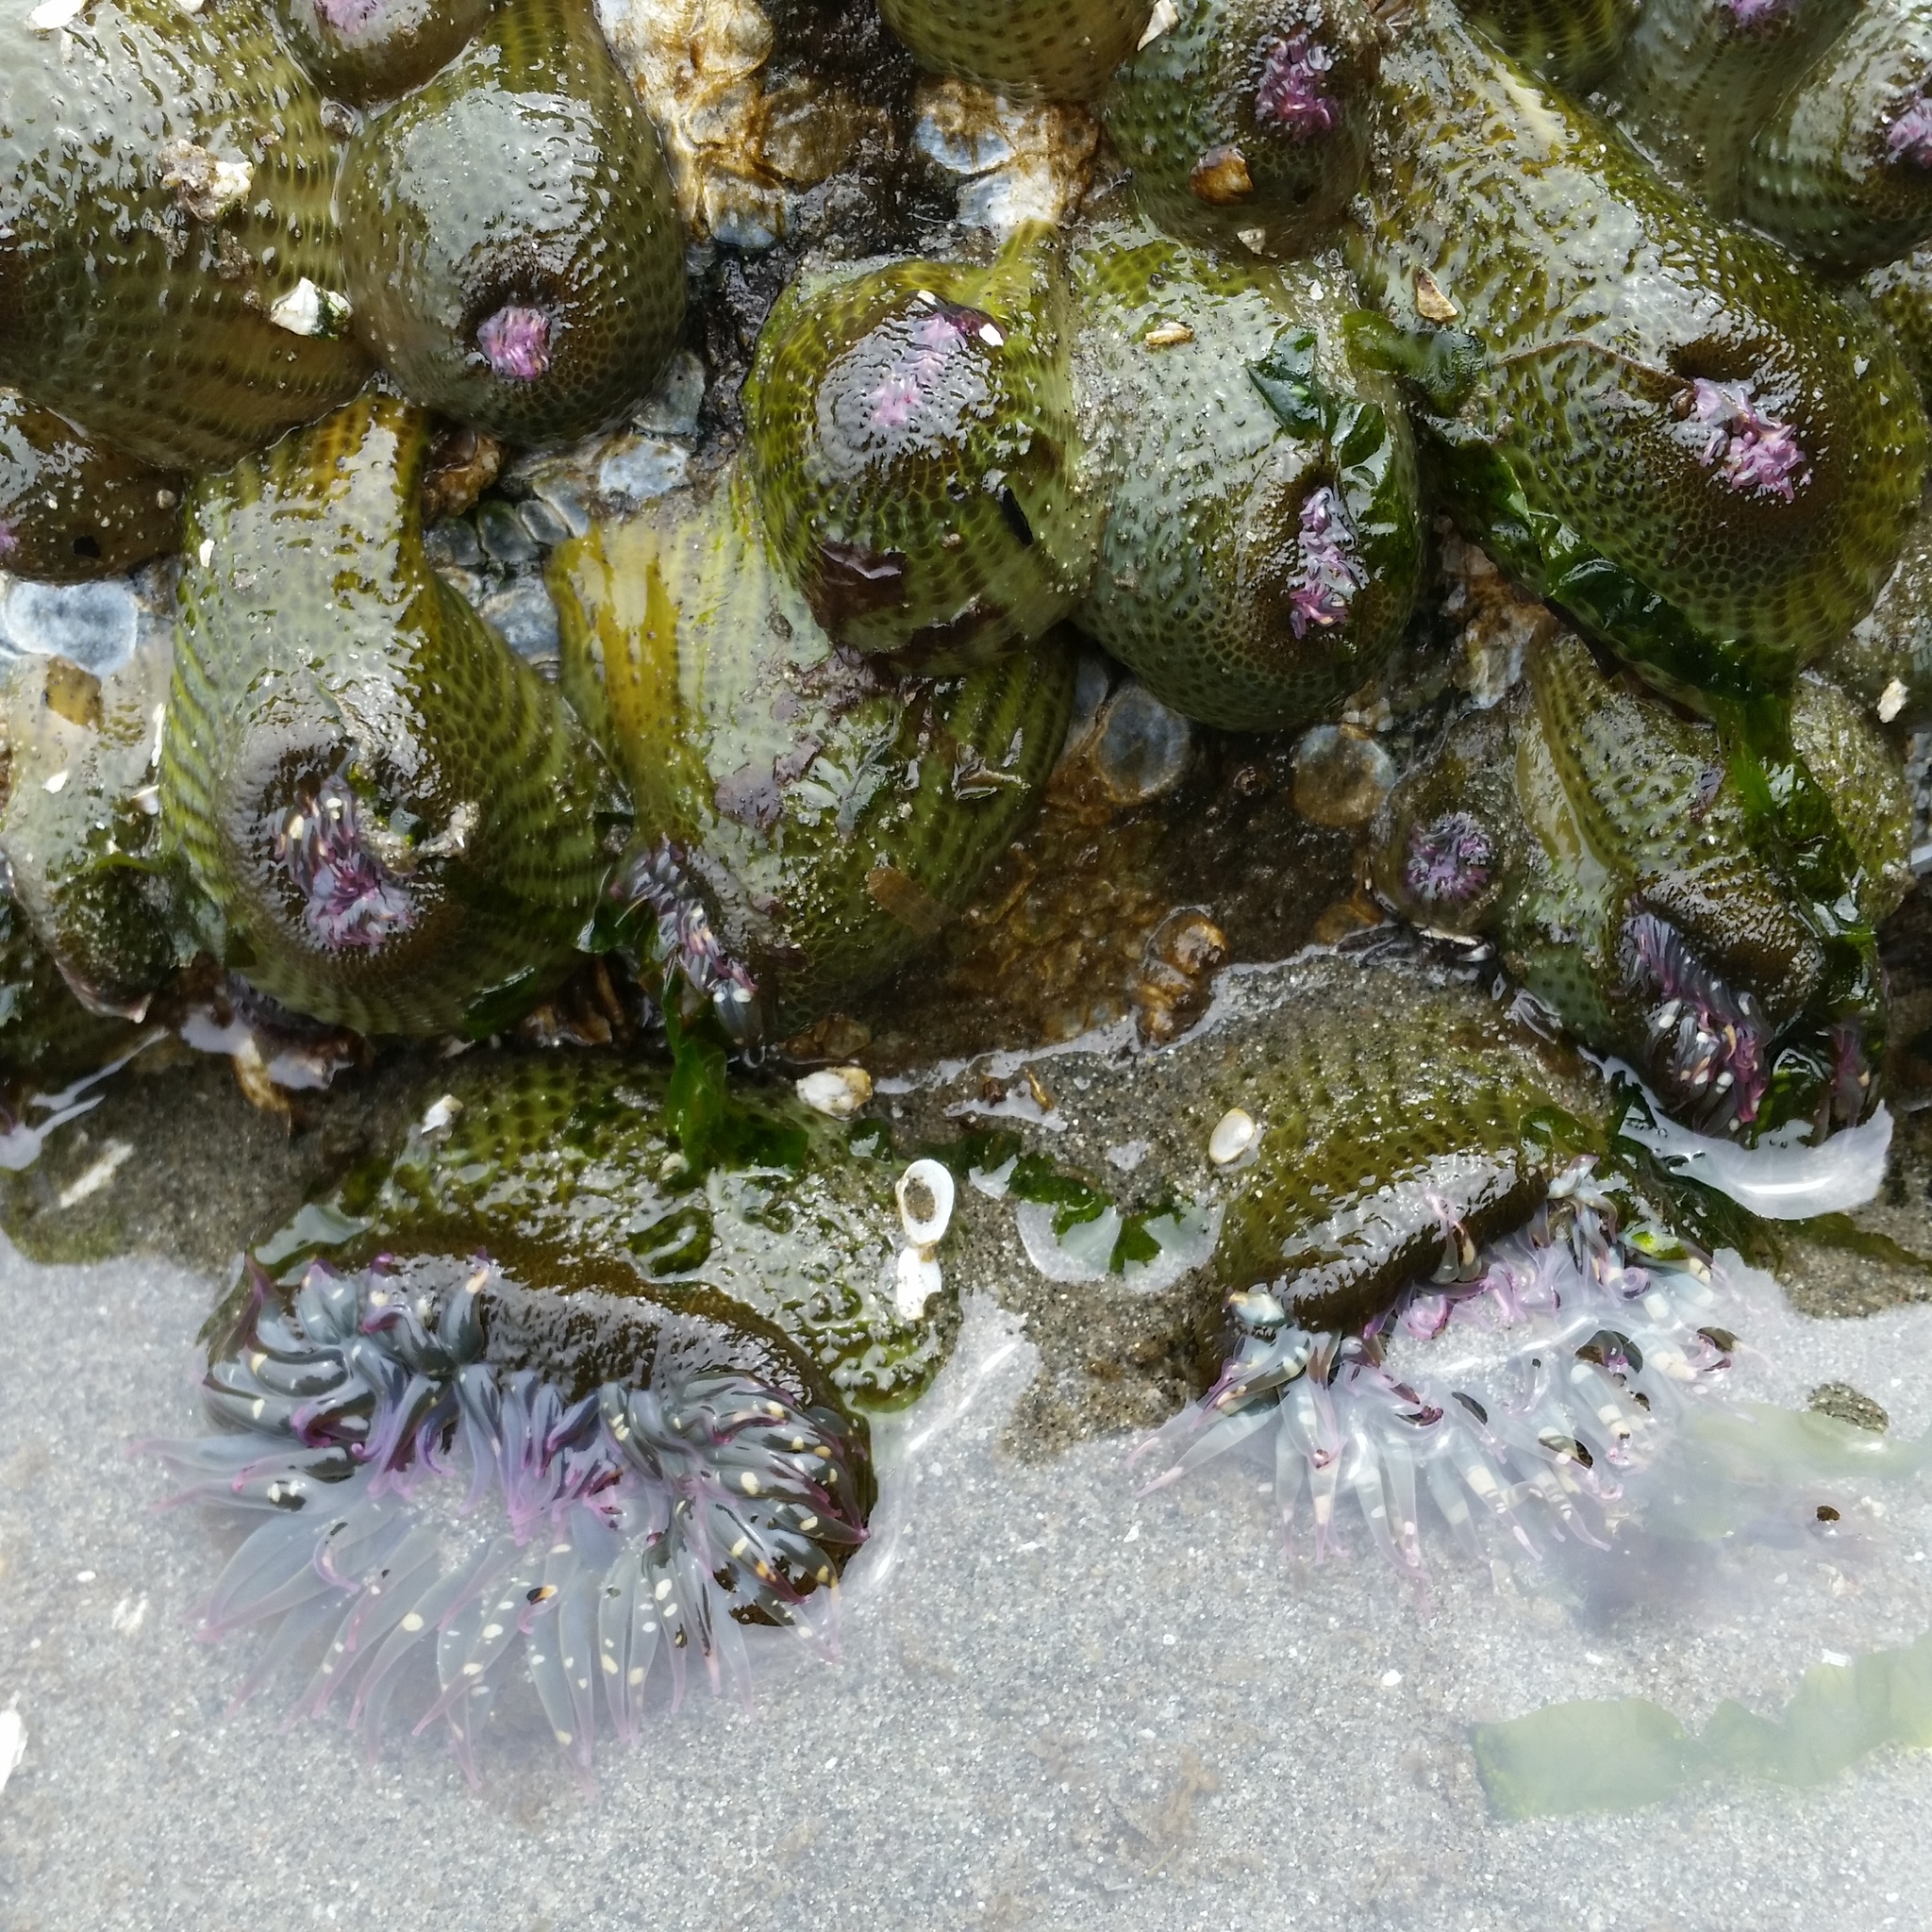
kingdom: Animalia
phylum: Cnidaria
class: Anthozoa
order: Actiniaria
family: Actiniidae
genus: Anthopleura
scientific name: Anthopleura elegantissima
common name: Clonal anemone
